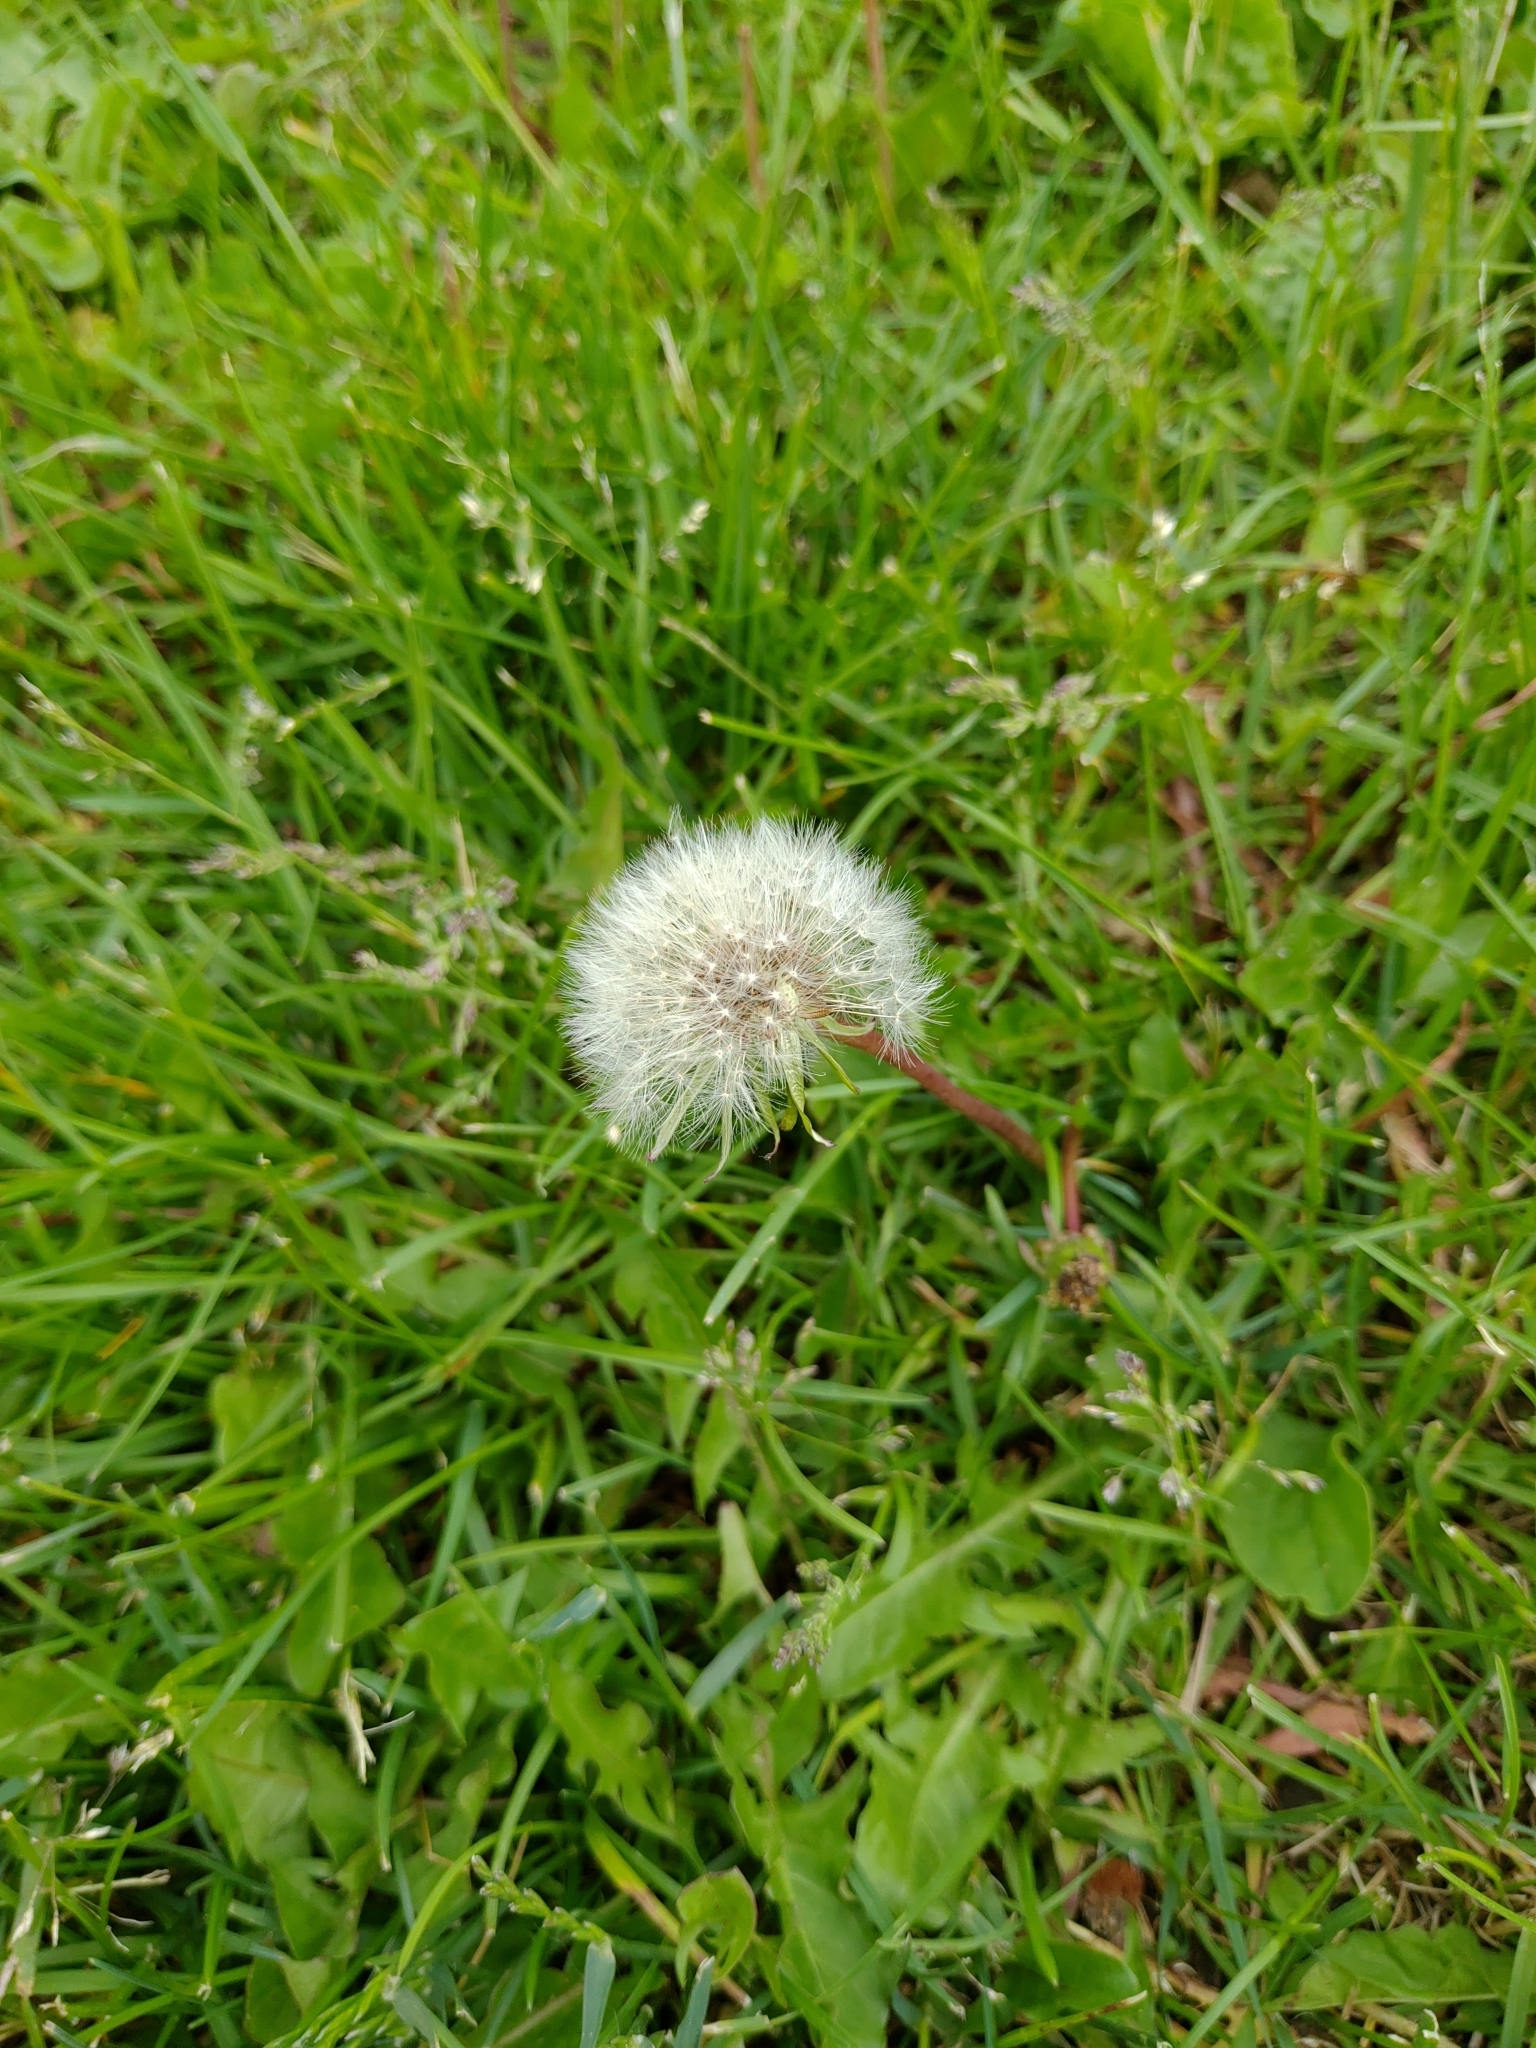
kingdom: Plantae
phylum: Tracheophyta
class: Magnoliopsida
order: Asterales
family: Asteraceae
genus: Taraxacum
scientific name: Taraxacum officinale
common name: Common dandelion
